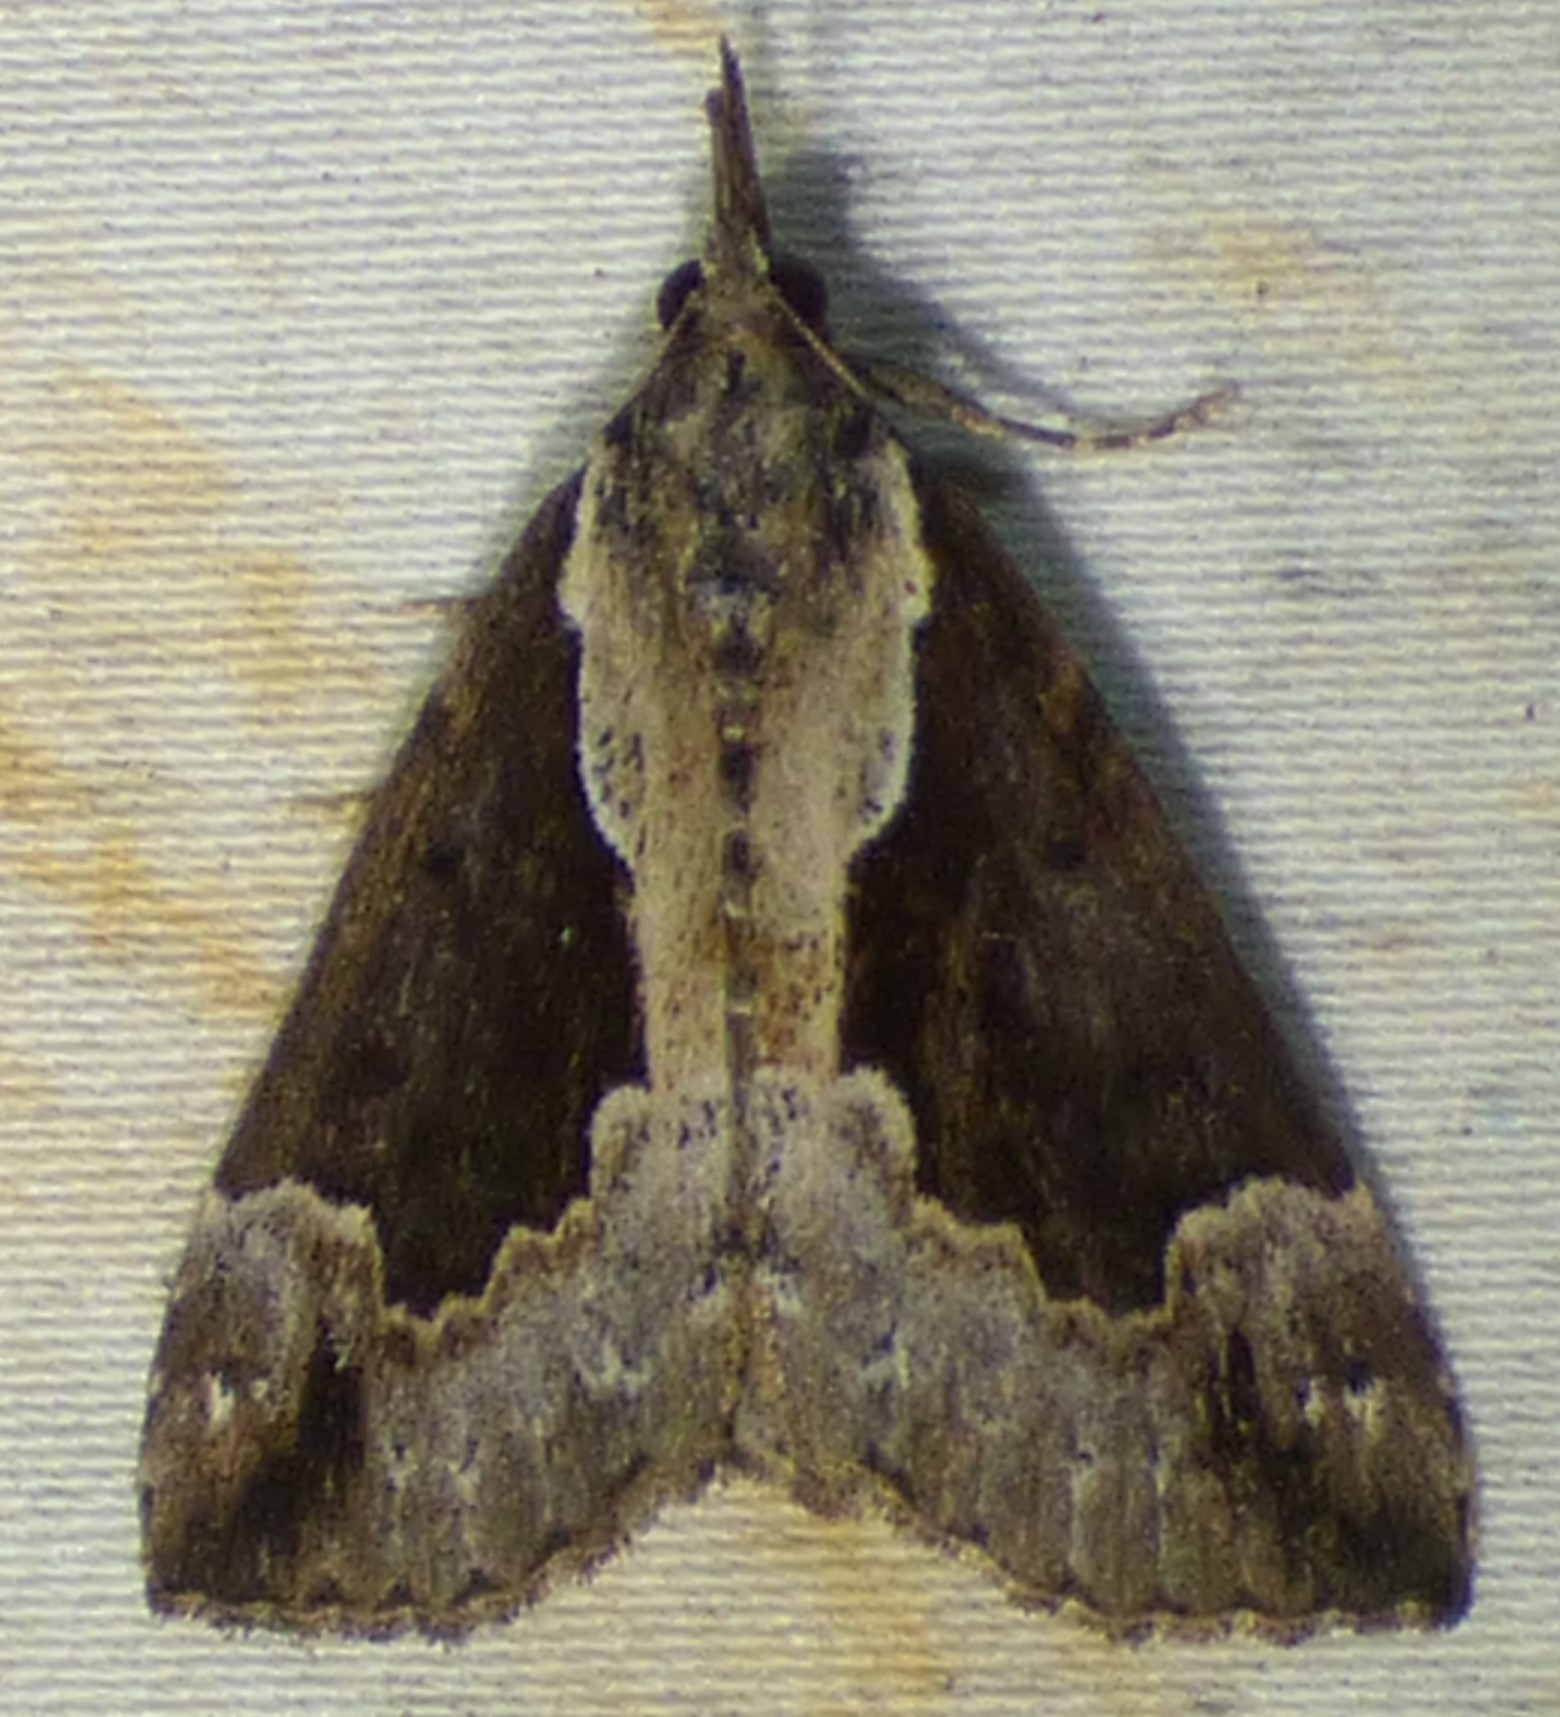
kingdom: Animalia
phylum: Arthropoda
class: Insecta
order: Lepidoptera
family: Erebidae
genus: Hypena
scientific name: Hypena baltimoralis
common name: Baltimore snout
